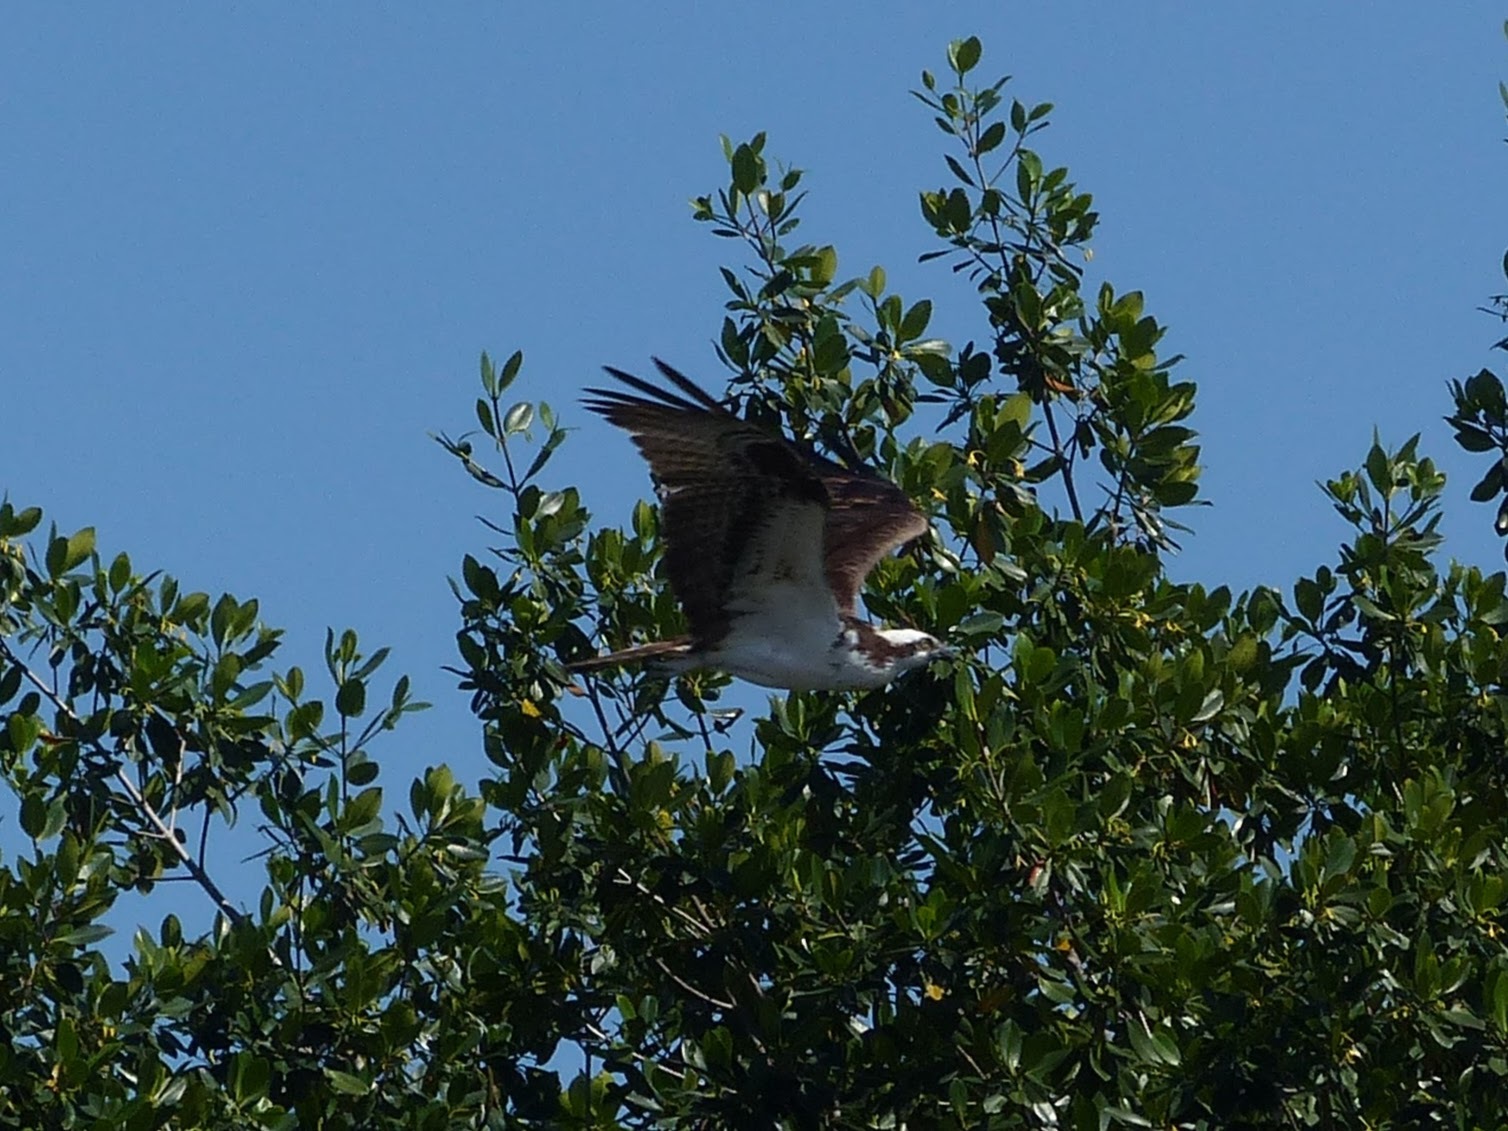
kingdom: Animalia
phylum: Chordata
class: Aves
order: Accipitriformes
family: Pandionidae
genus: Pandion
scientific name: Pandion haliaetus
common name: Osprey
